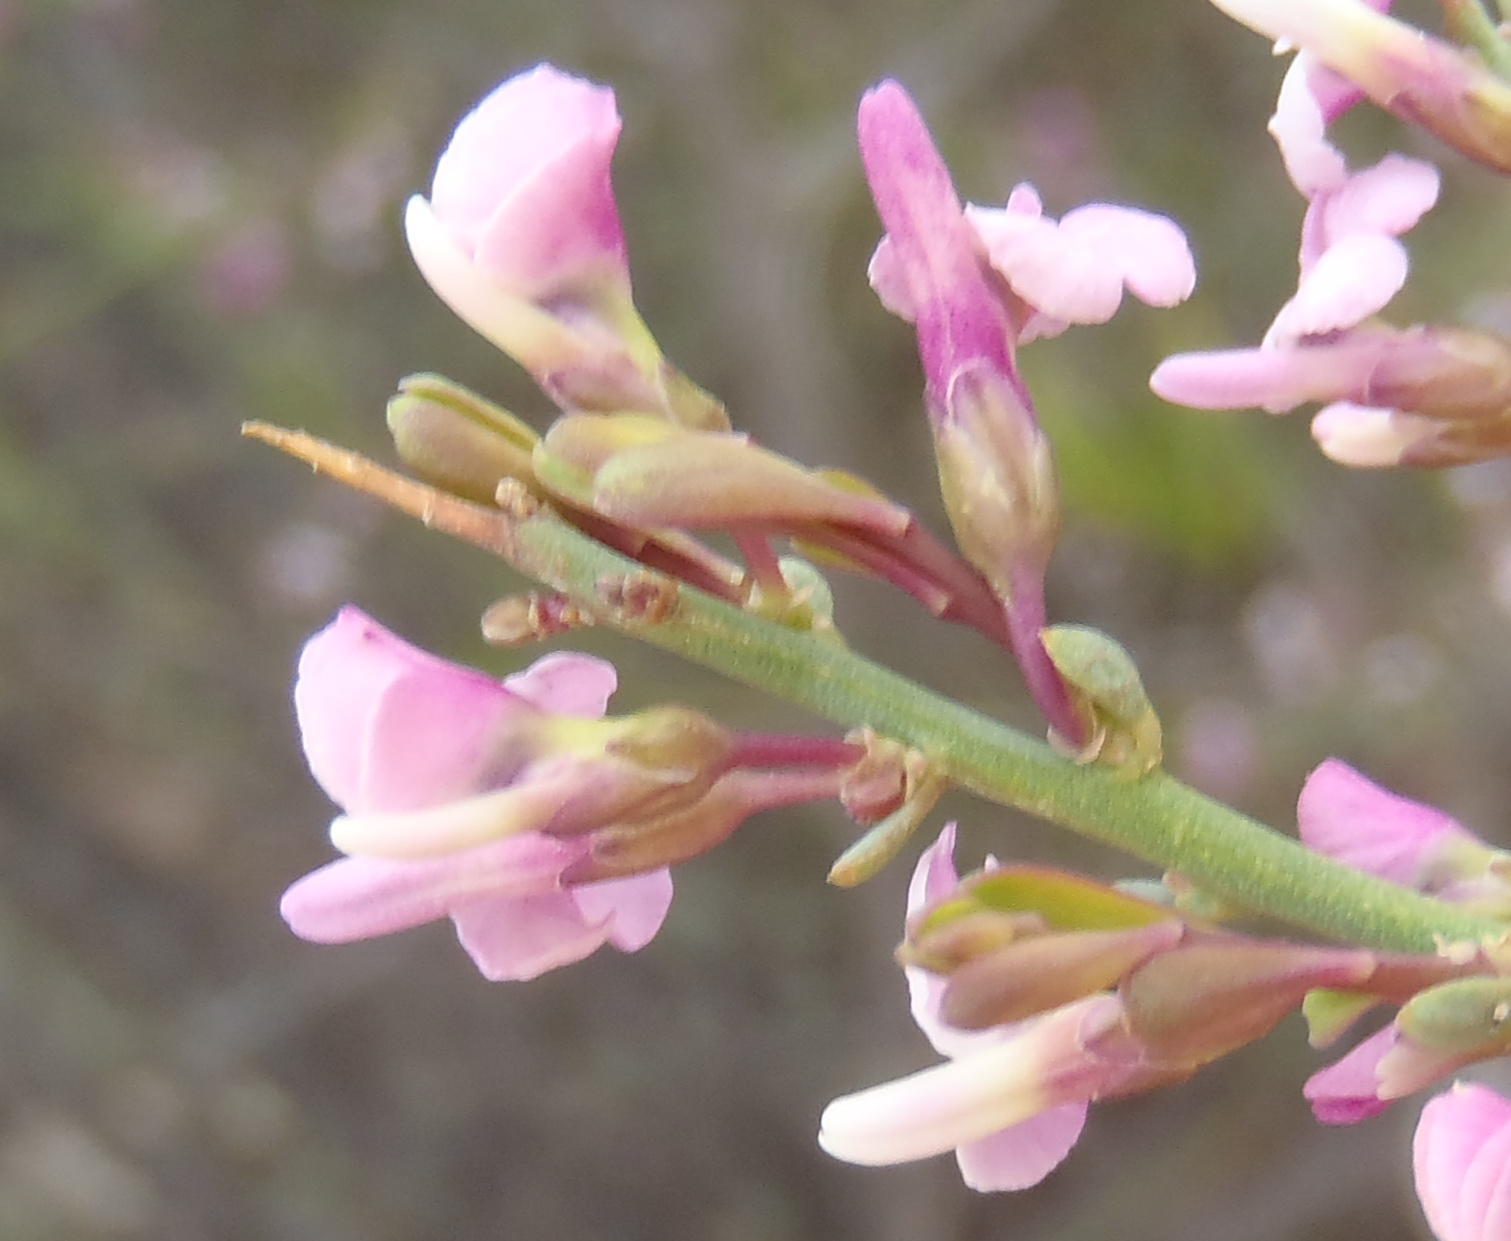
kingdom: Plantae
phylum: Tracheophyta
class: Magnoliopsida
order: Fabales
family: Polygalaceae
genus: Muraltia
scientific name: Muraltia spinosa
